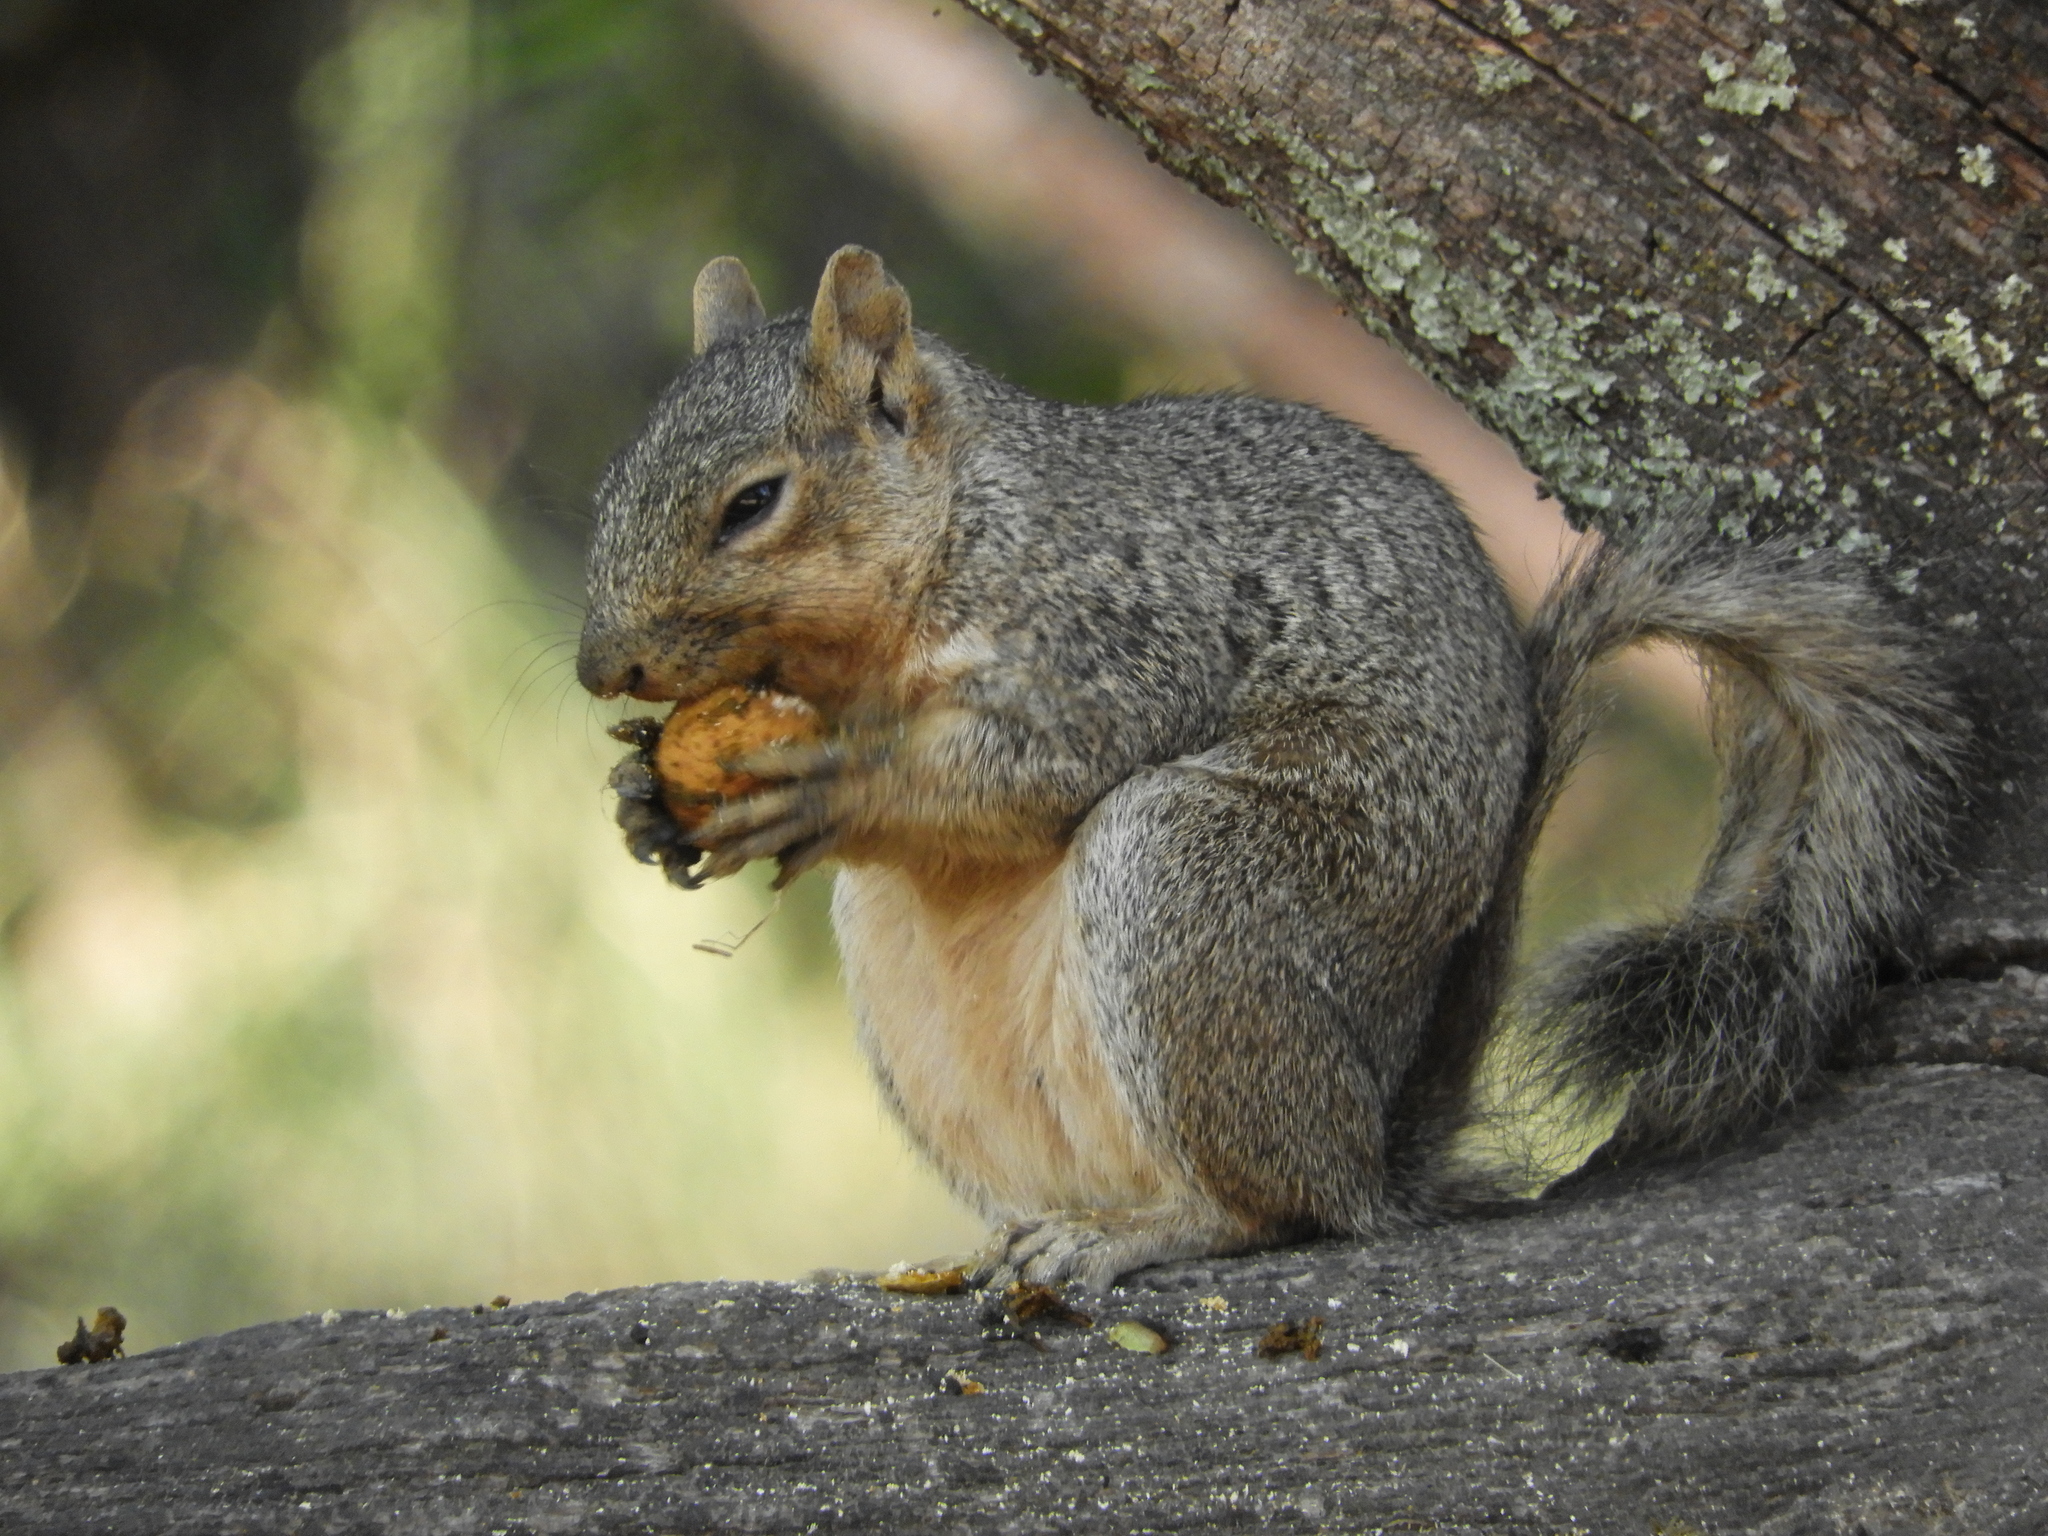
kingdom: Animalia
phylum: Chordata
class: Mammalia
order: Rodentia
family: Sciuridae
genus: Sciurus
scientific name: Sciurus niger
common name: Fox squirrel
